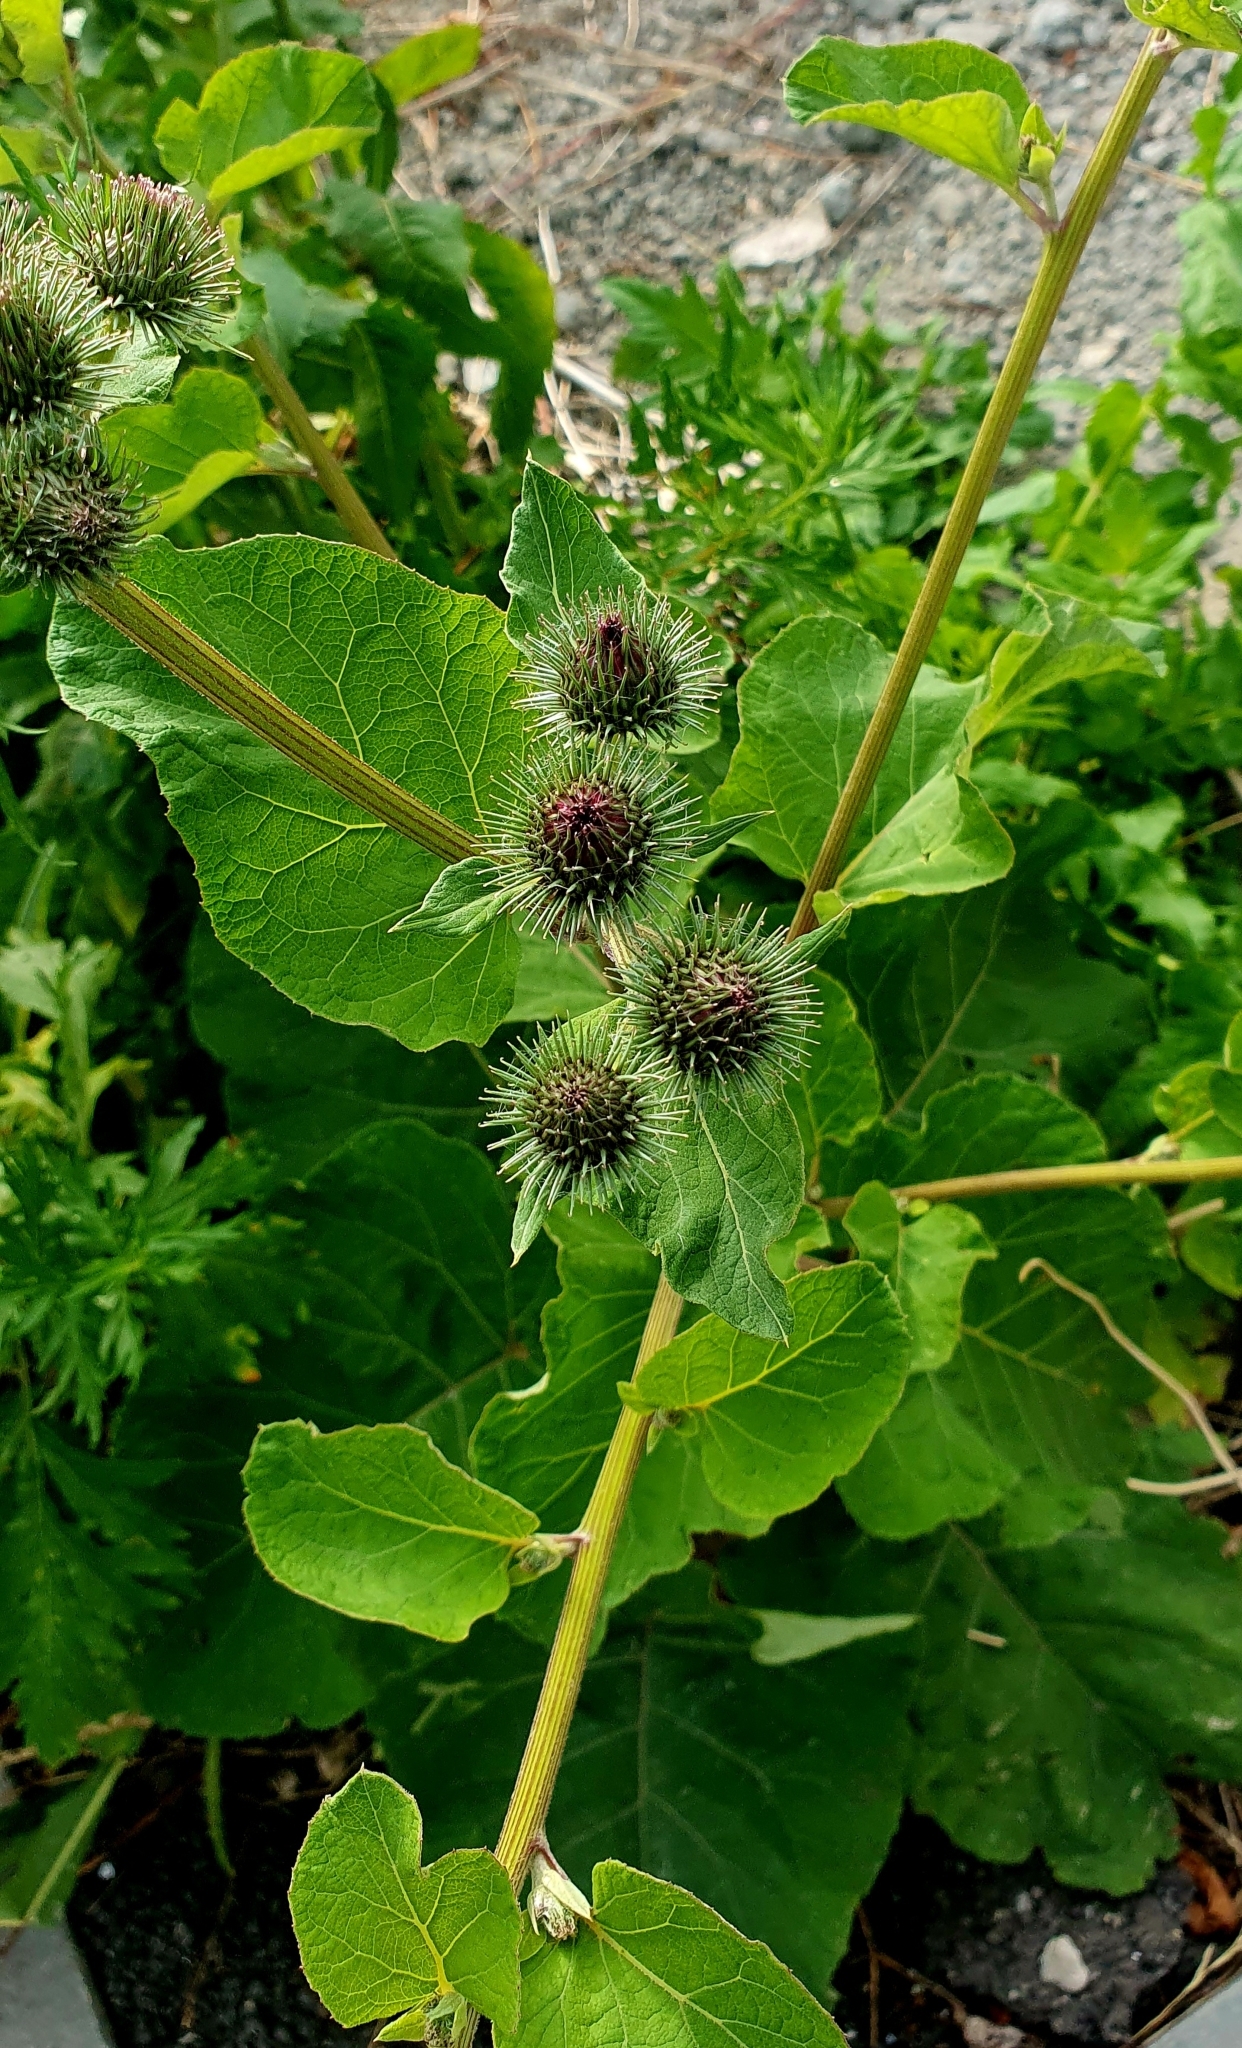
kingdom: Plantae
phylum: Tracheophyta
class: Magnoliopsida
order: Asterales
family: Asteraceae
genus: Arctium
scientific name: Arctium lappa
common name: Greater burdock
